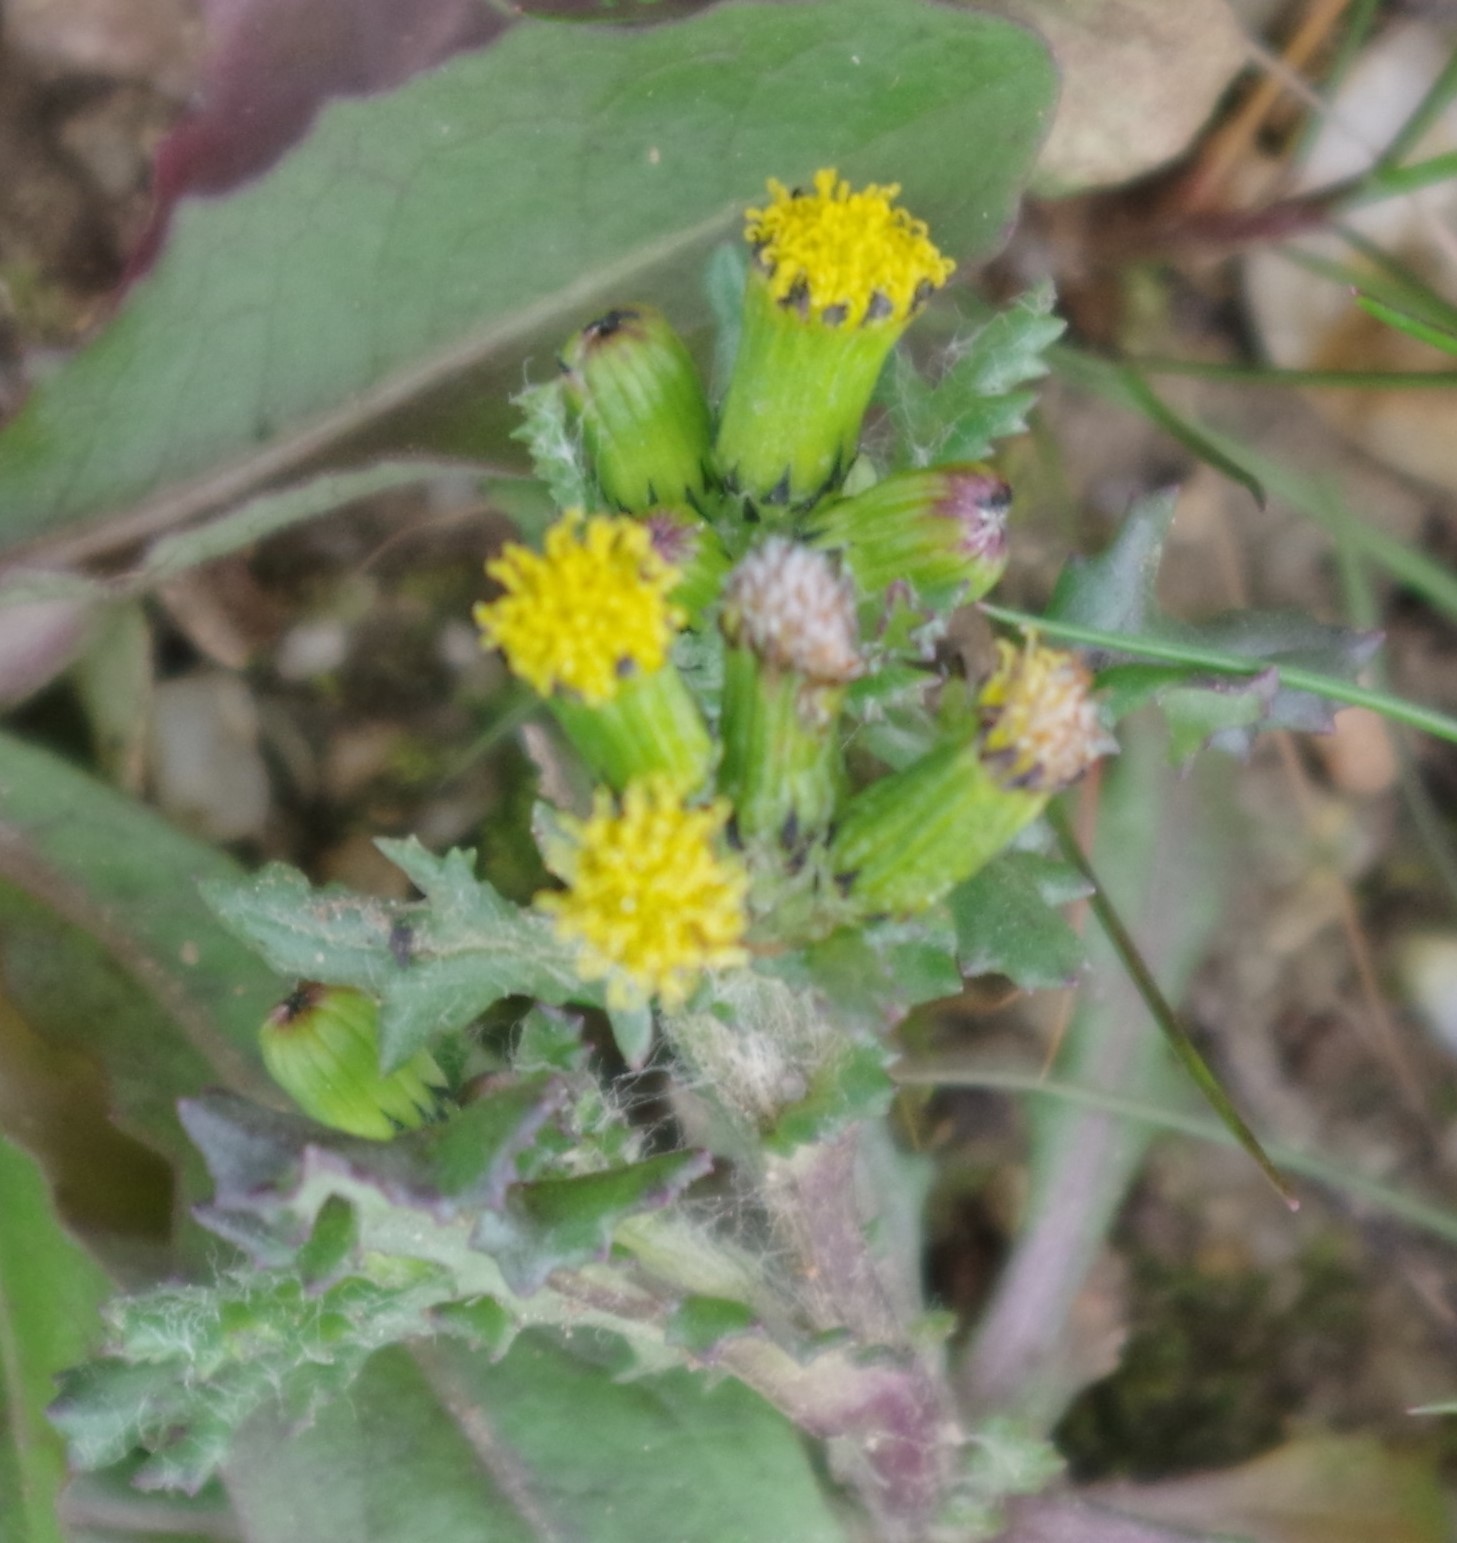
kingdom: Plantae
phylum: Tracheophyta
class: Magnoliopsida
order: Asterales
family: Asteraceae
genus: Senecio
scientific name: Senecio vulgaris
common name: Old-man-in-the-spring
